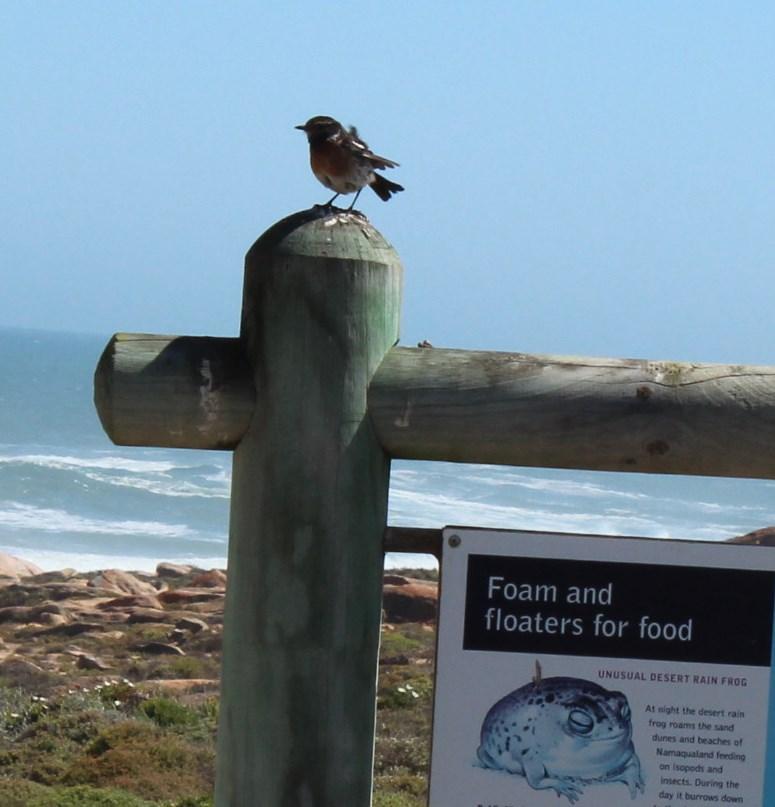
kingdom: Animalia
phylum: Chordata
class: Aves
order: Passeriformes
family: Muscicapidae
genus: Saxicola
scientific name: Saxicola torquatus
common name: African stonechat
